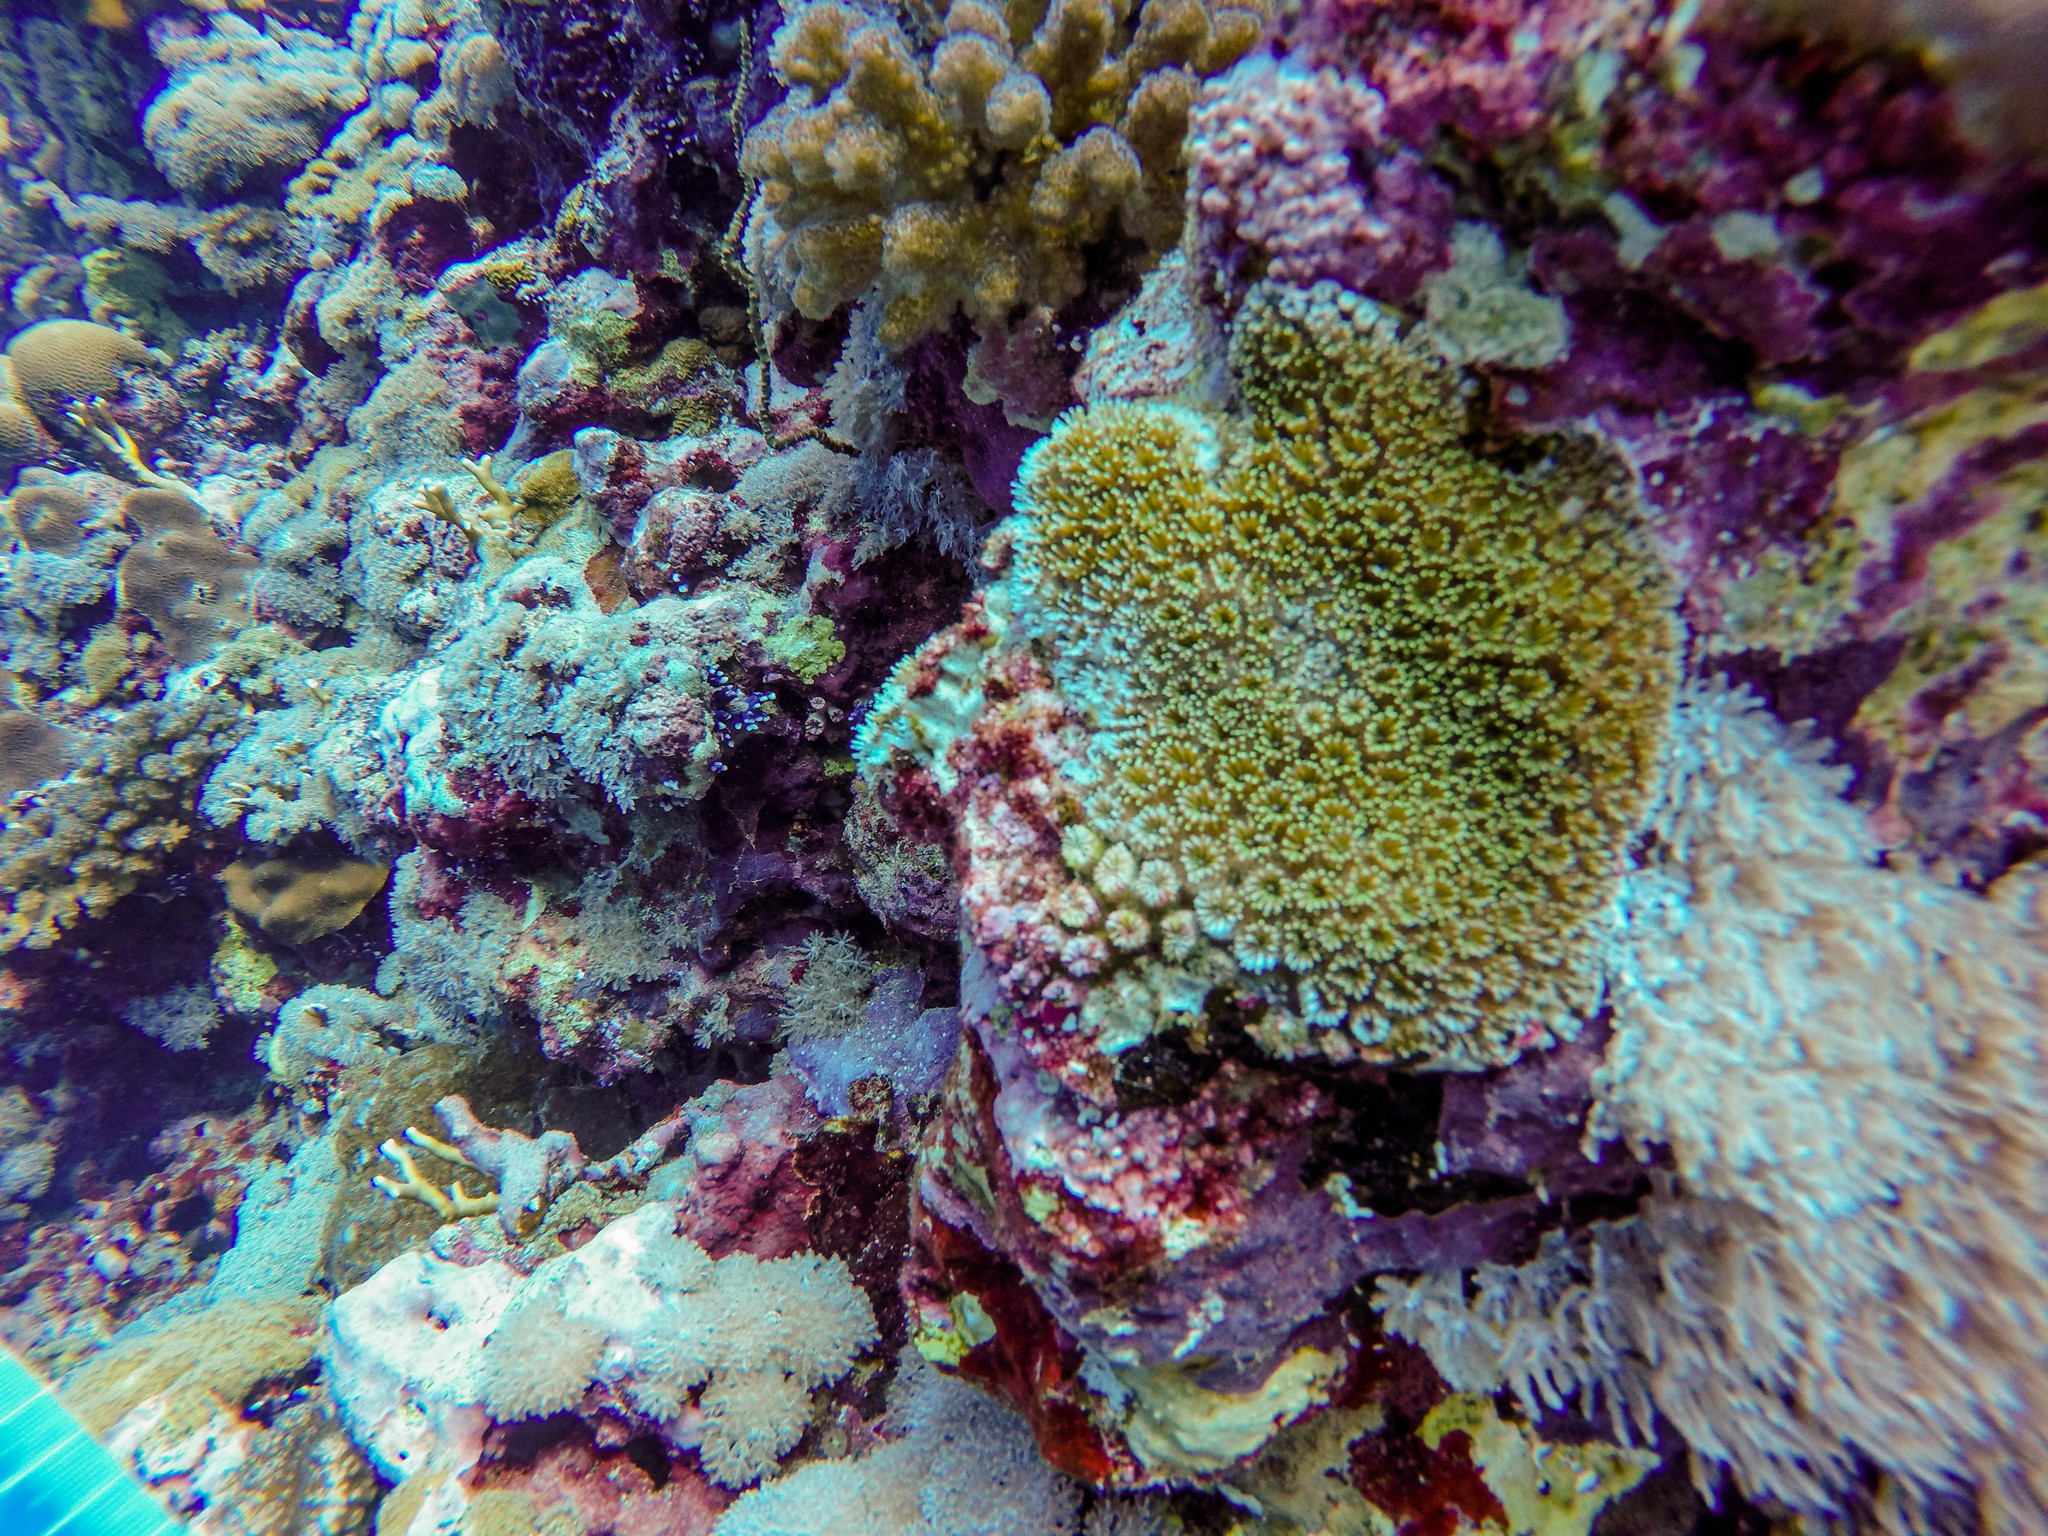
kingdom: Animalia
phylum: Cnidaria
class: Anthozoa
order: Scleractinia
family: Euphylliidae
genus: Galaxea
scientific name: Galaxea fascicularis
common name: Octopus coral
